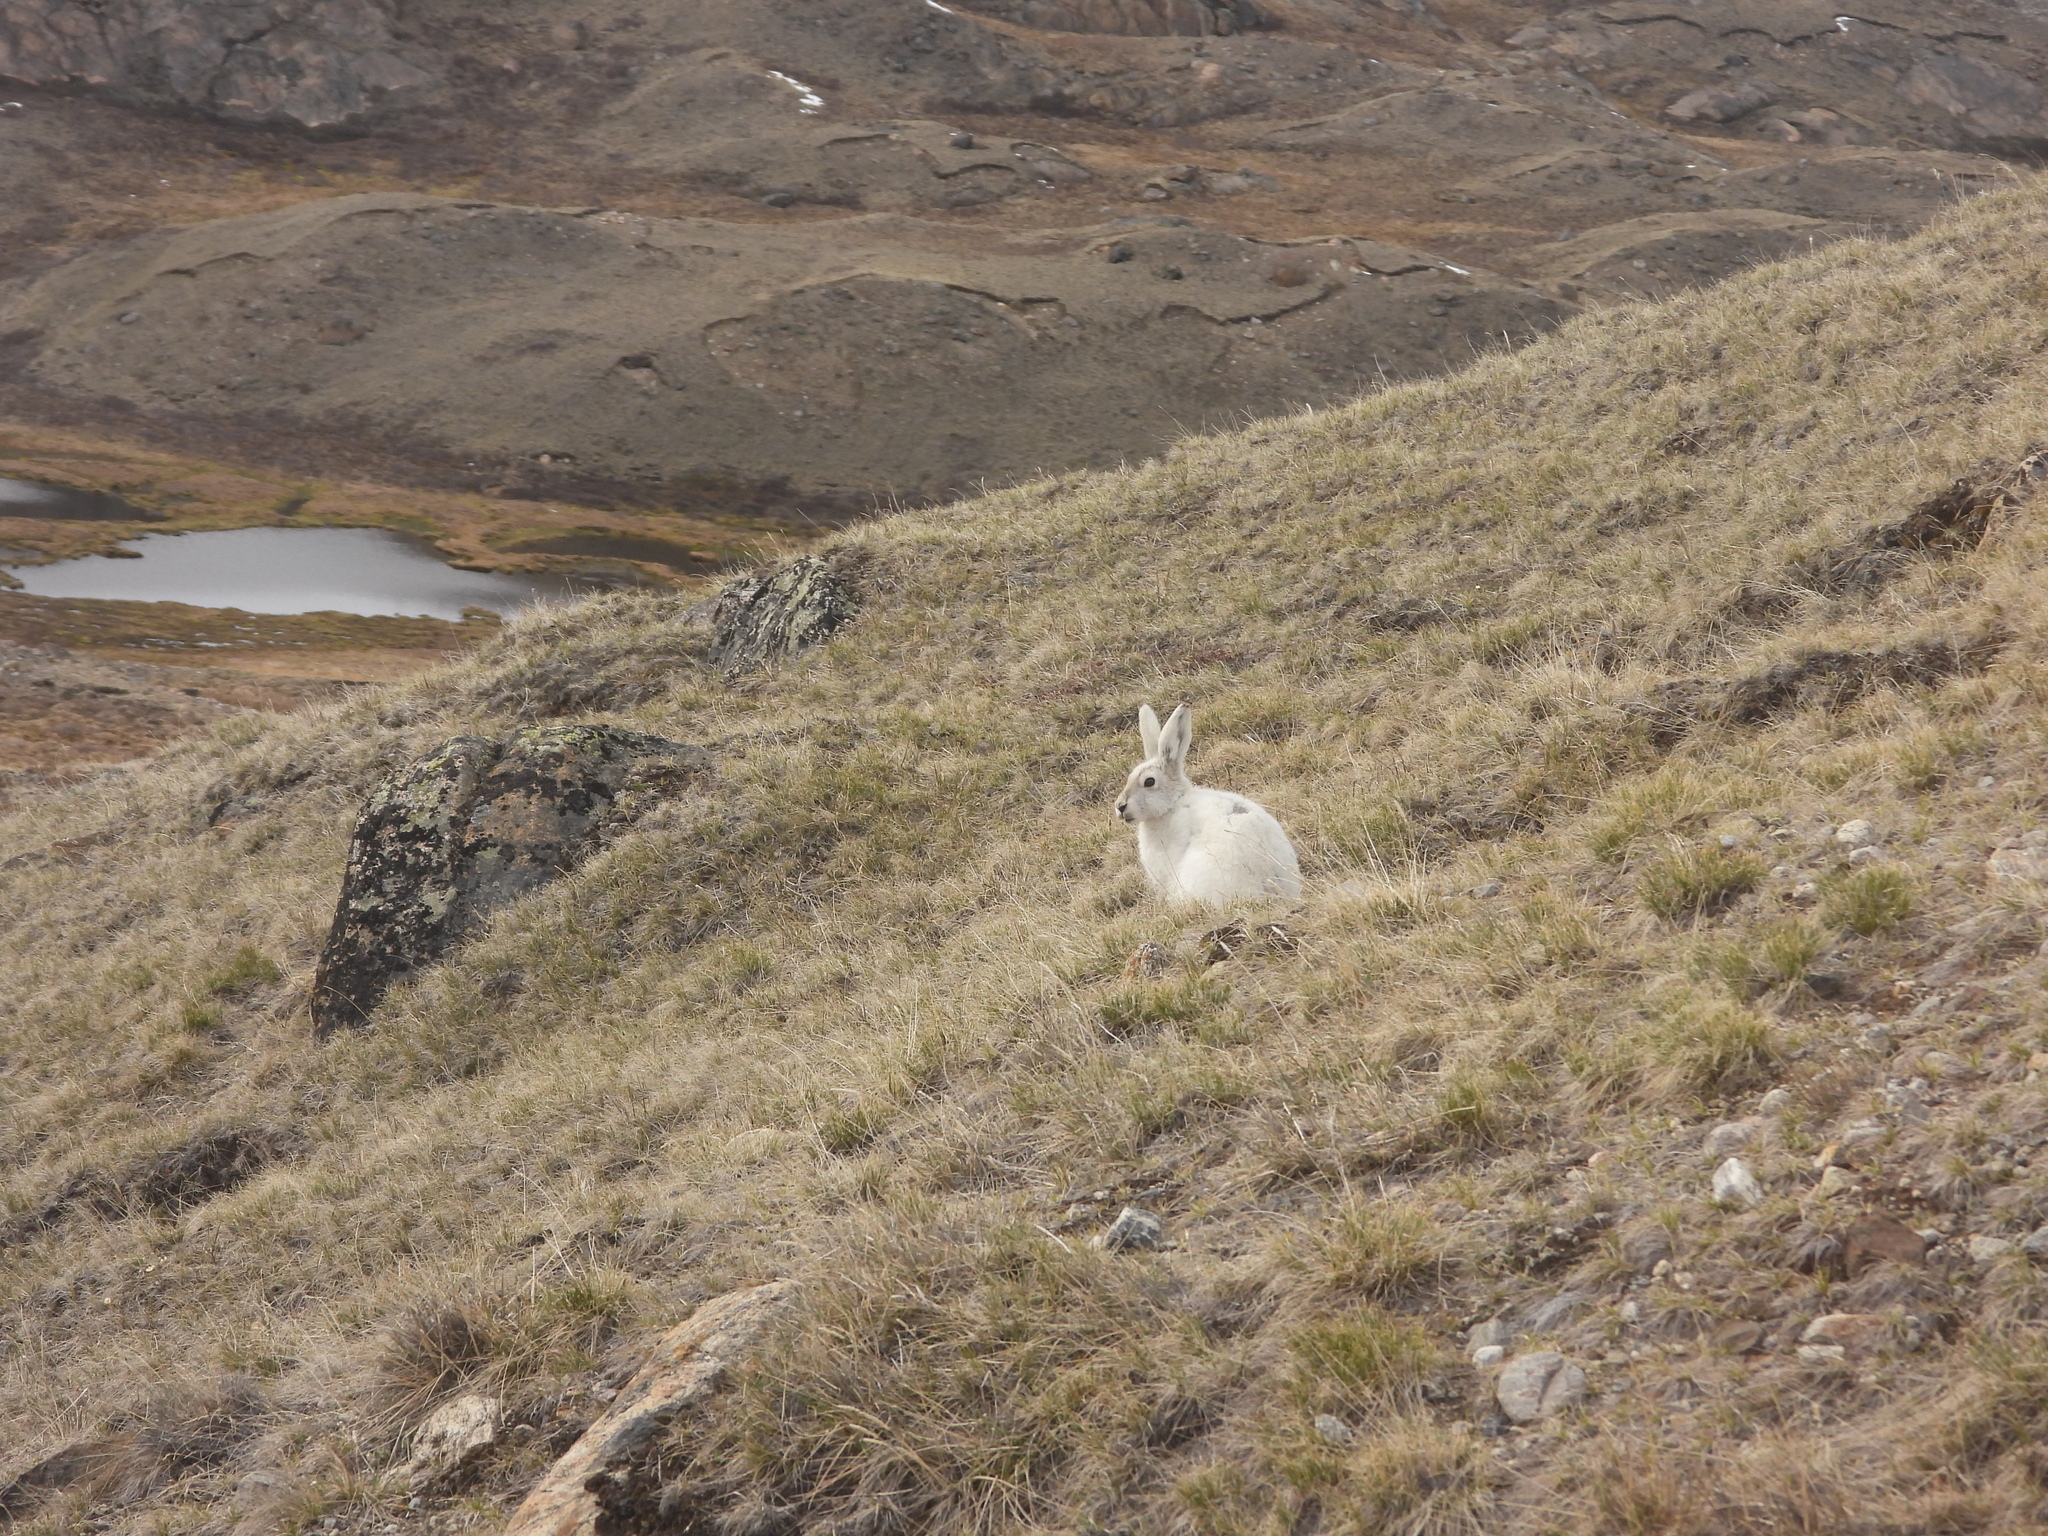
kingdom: Animalia
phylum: Chordata
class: Mammalia
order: Lagomorpha
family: Leporidae
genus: Lepus
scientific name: Lepus arcticus
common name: Arctic hare
